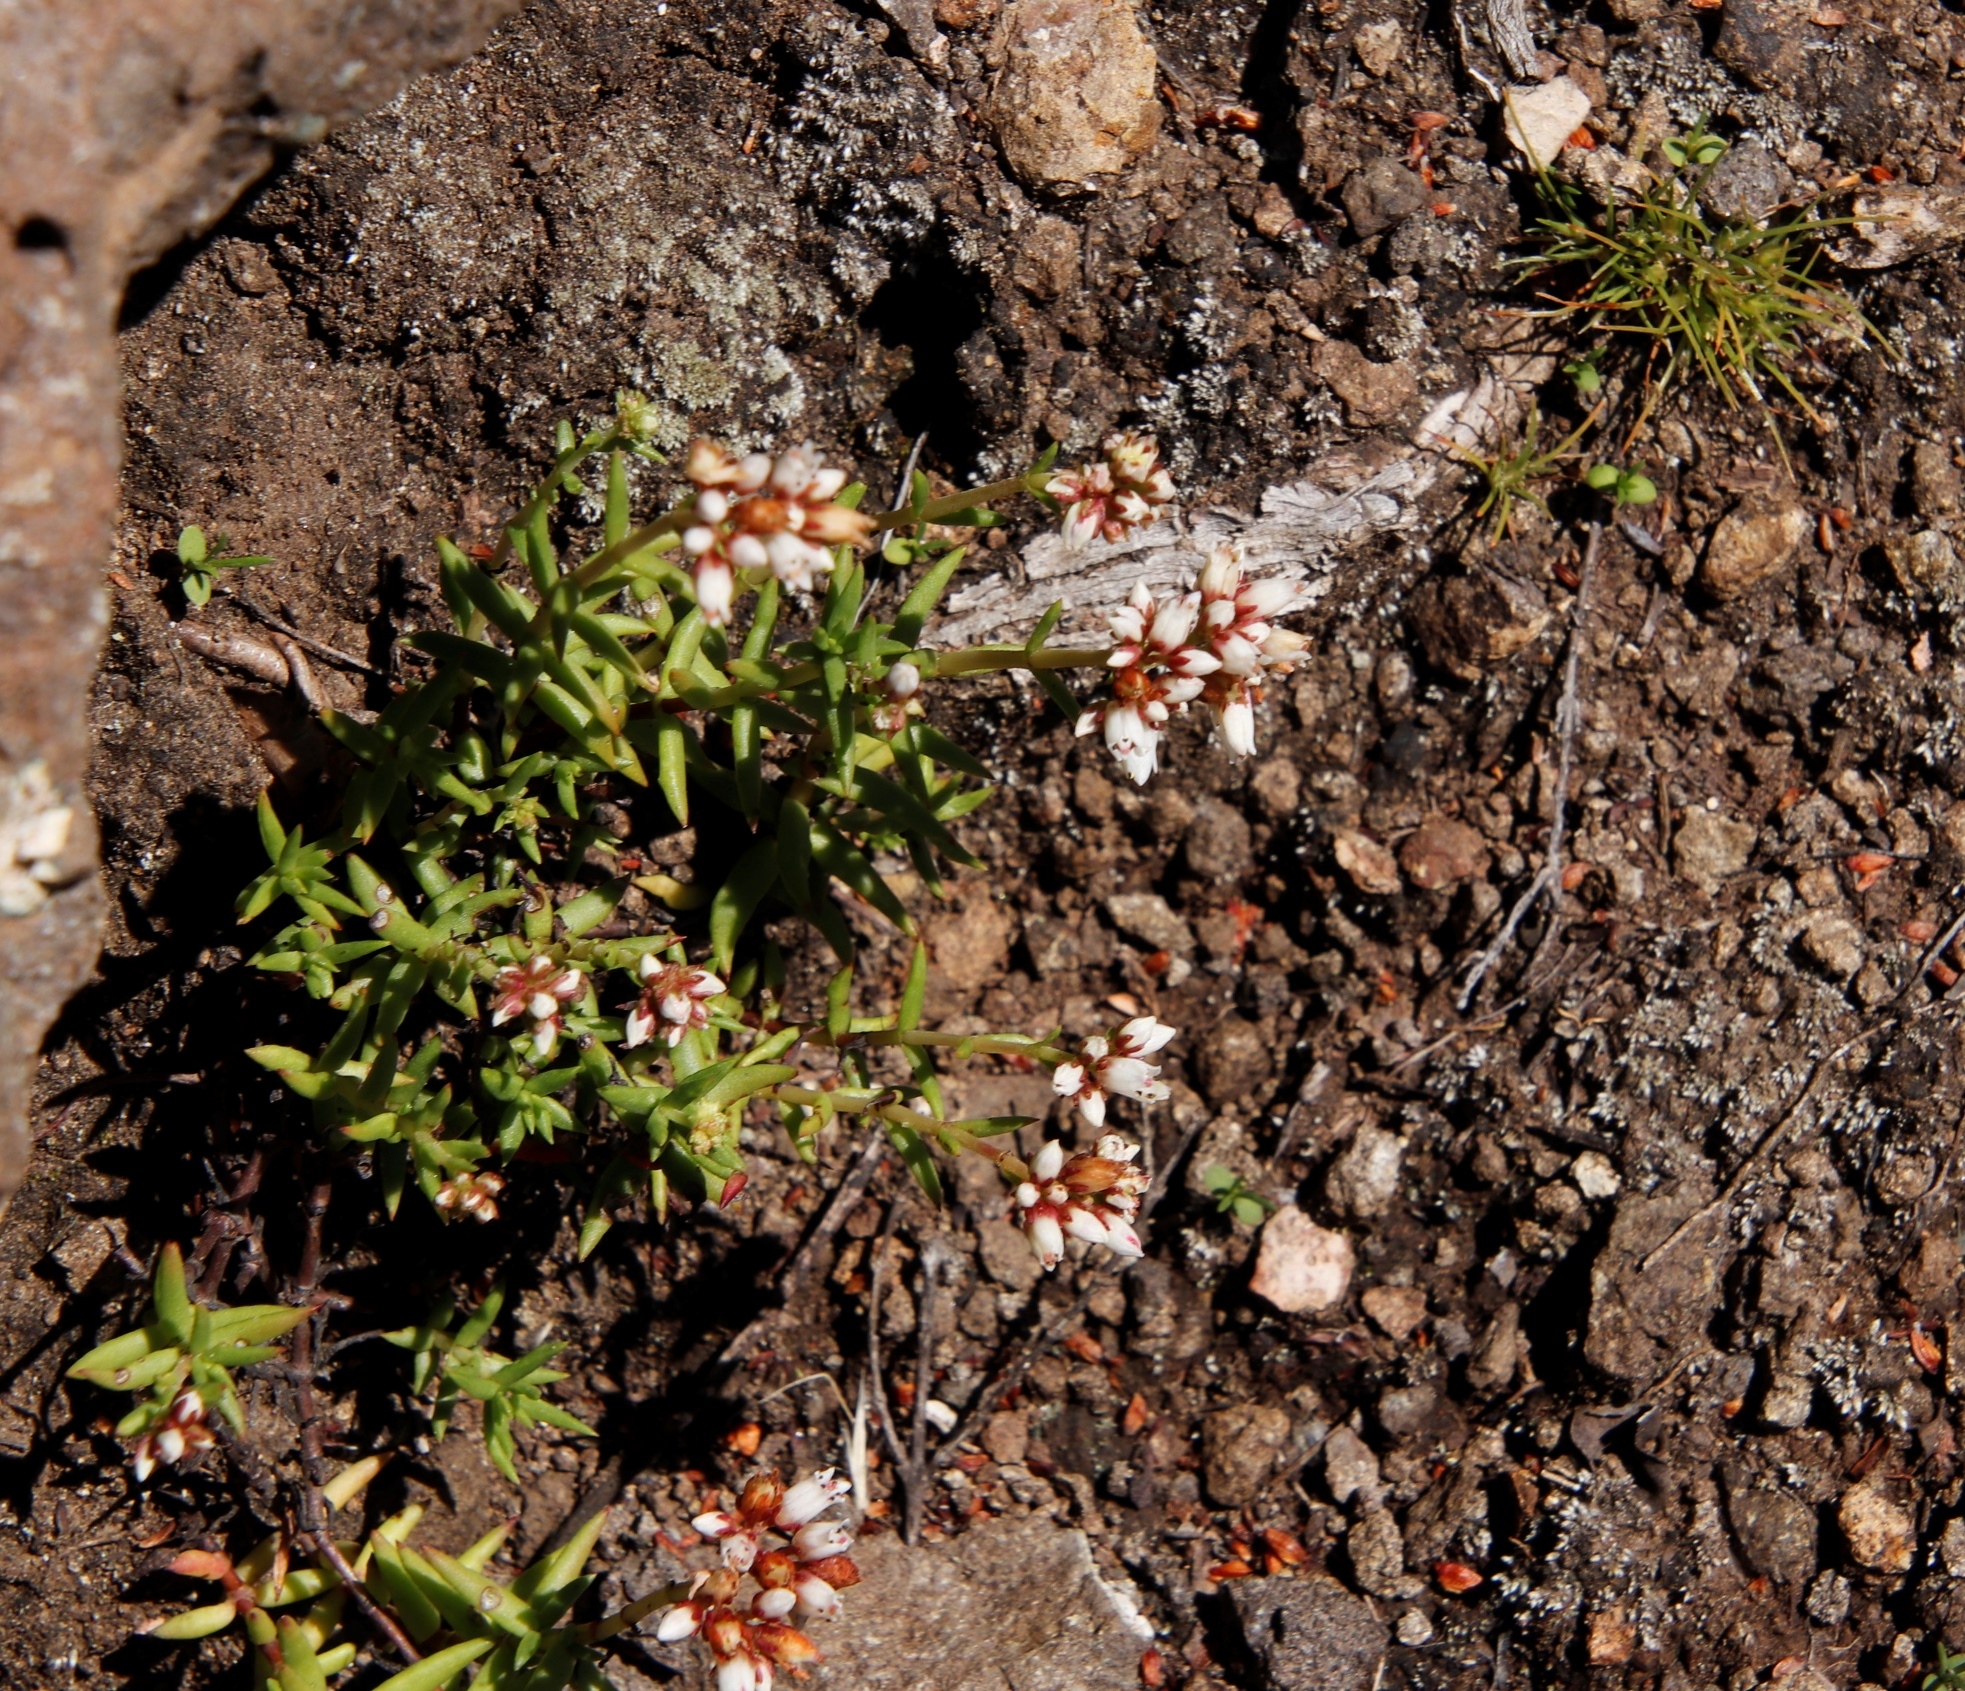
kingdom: Plantae
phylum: Tracheophyta
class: Magnoliopsida
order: Saxifragales
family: Crassulaceae
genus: Crassula
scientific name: Crassula dependens
